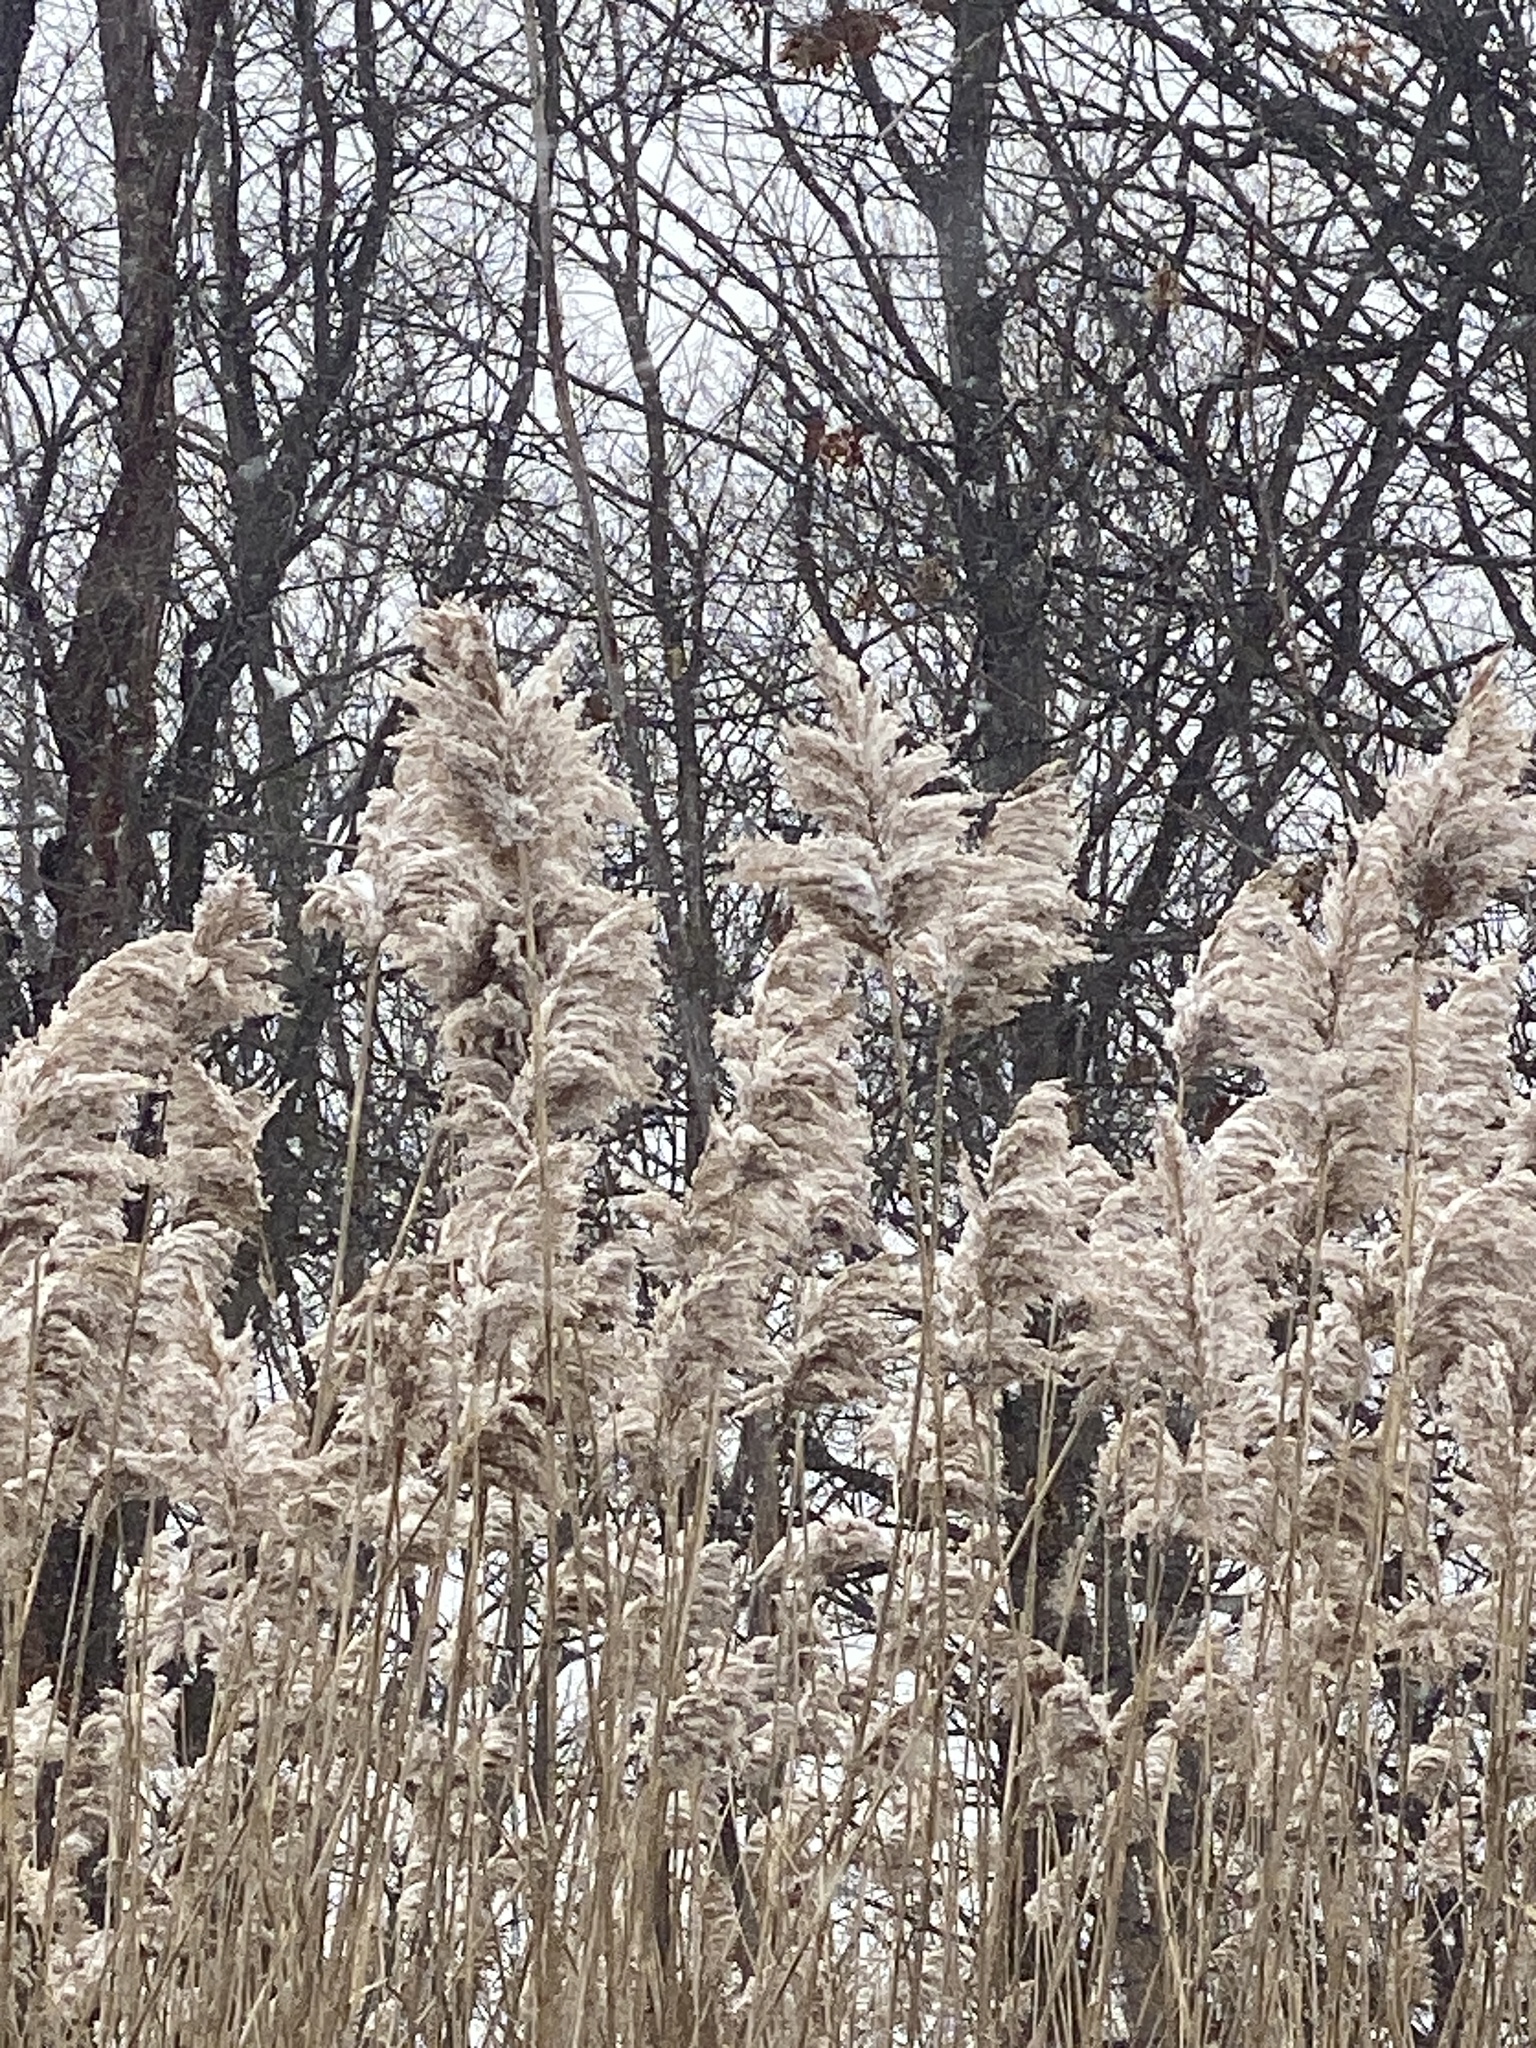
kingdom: Plantae
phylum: Tracheophyta
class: Liliopsida
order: Poales
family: Poaceae
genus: Phragmites
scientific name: Phragmites australis
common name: Common reed
